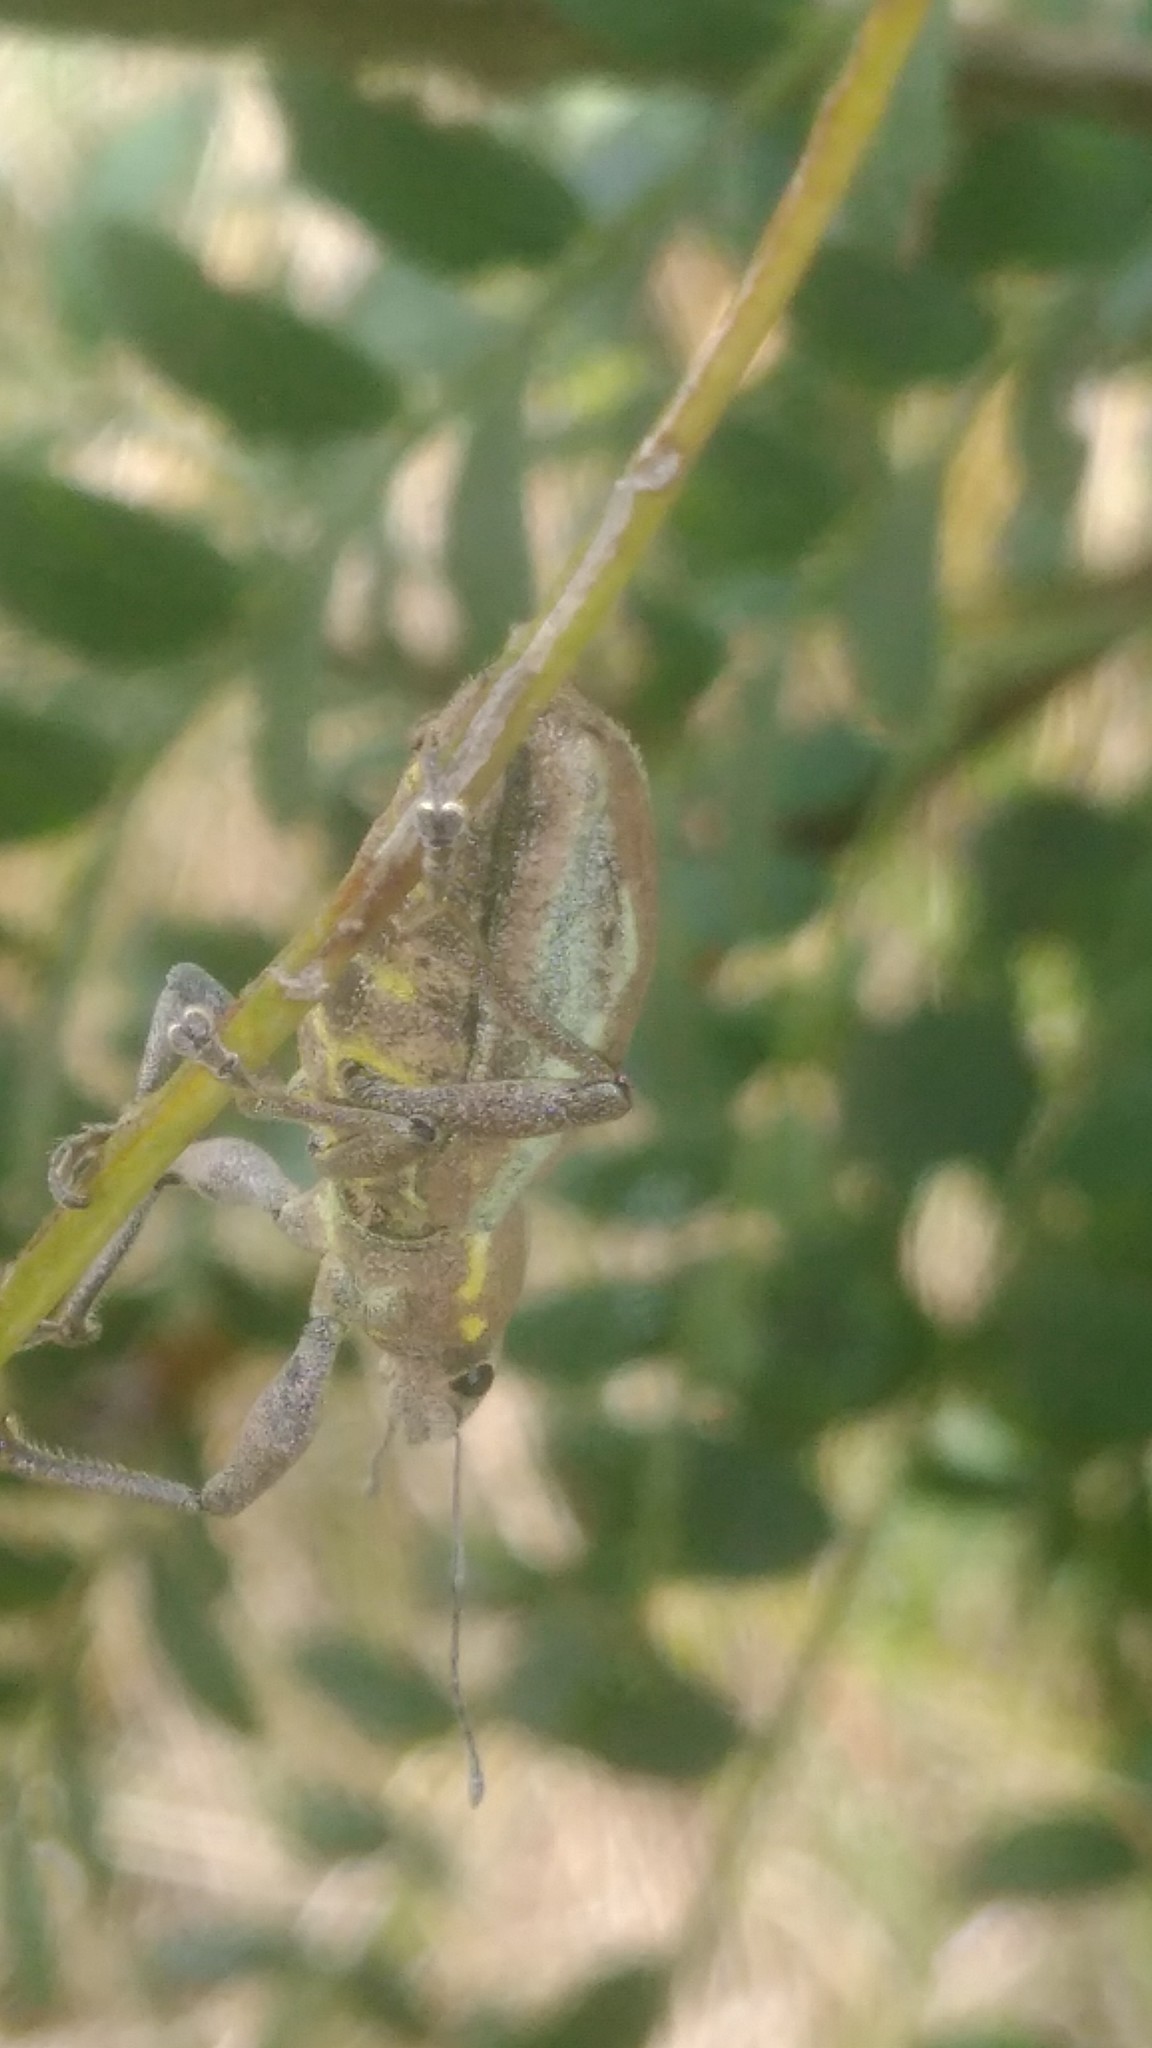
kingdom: Animalia
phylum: Arthropoda
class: Insecta
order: Coleoptera
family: Curculionidae
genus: Naupactus
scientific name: Naupactus xanthographus
